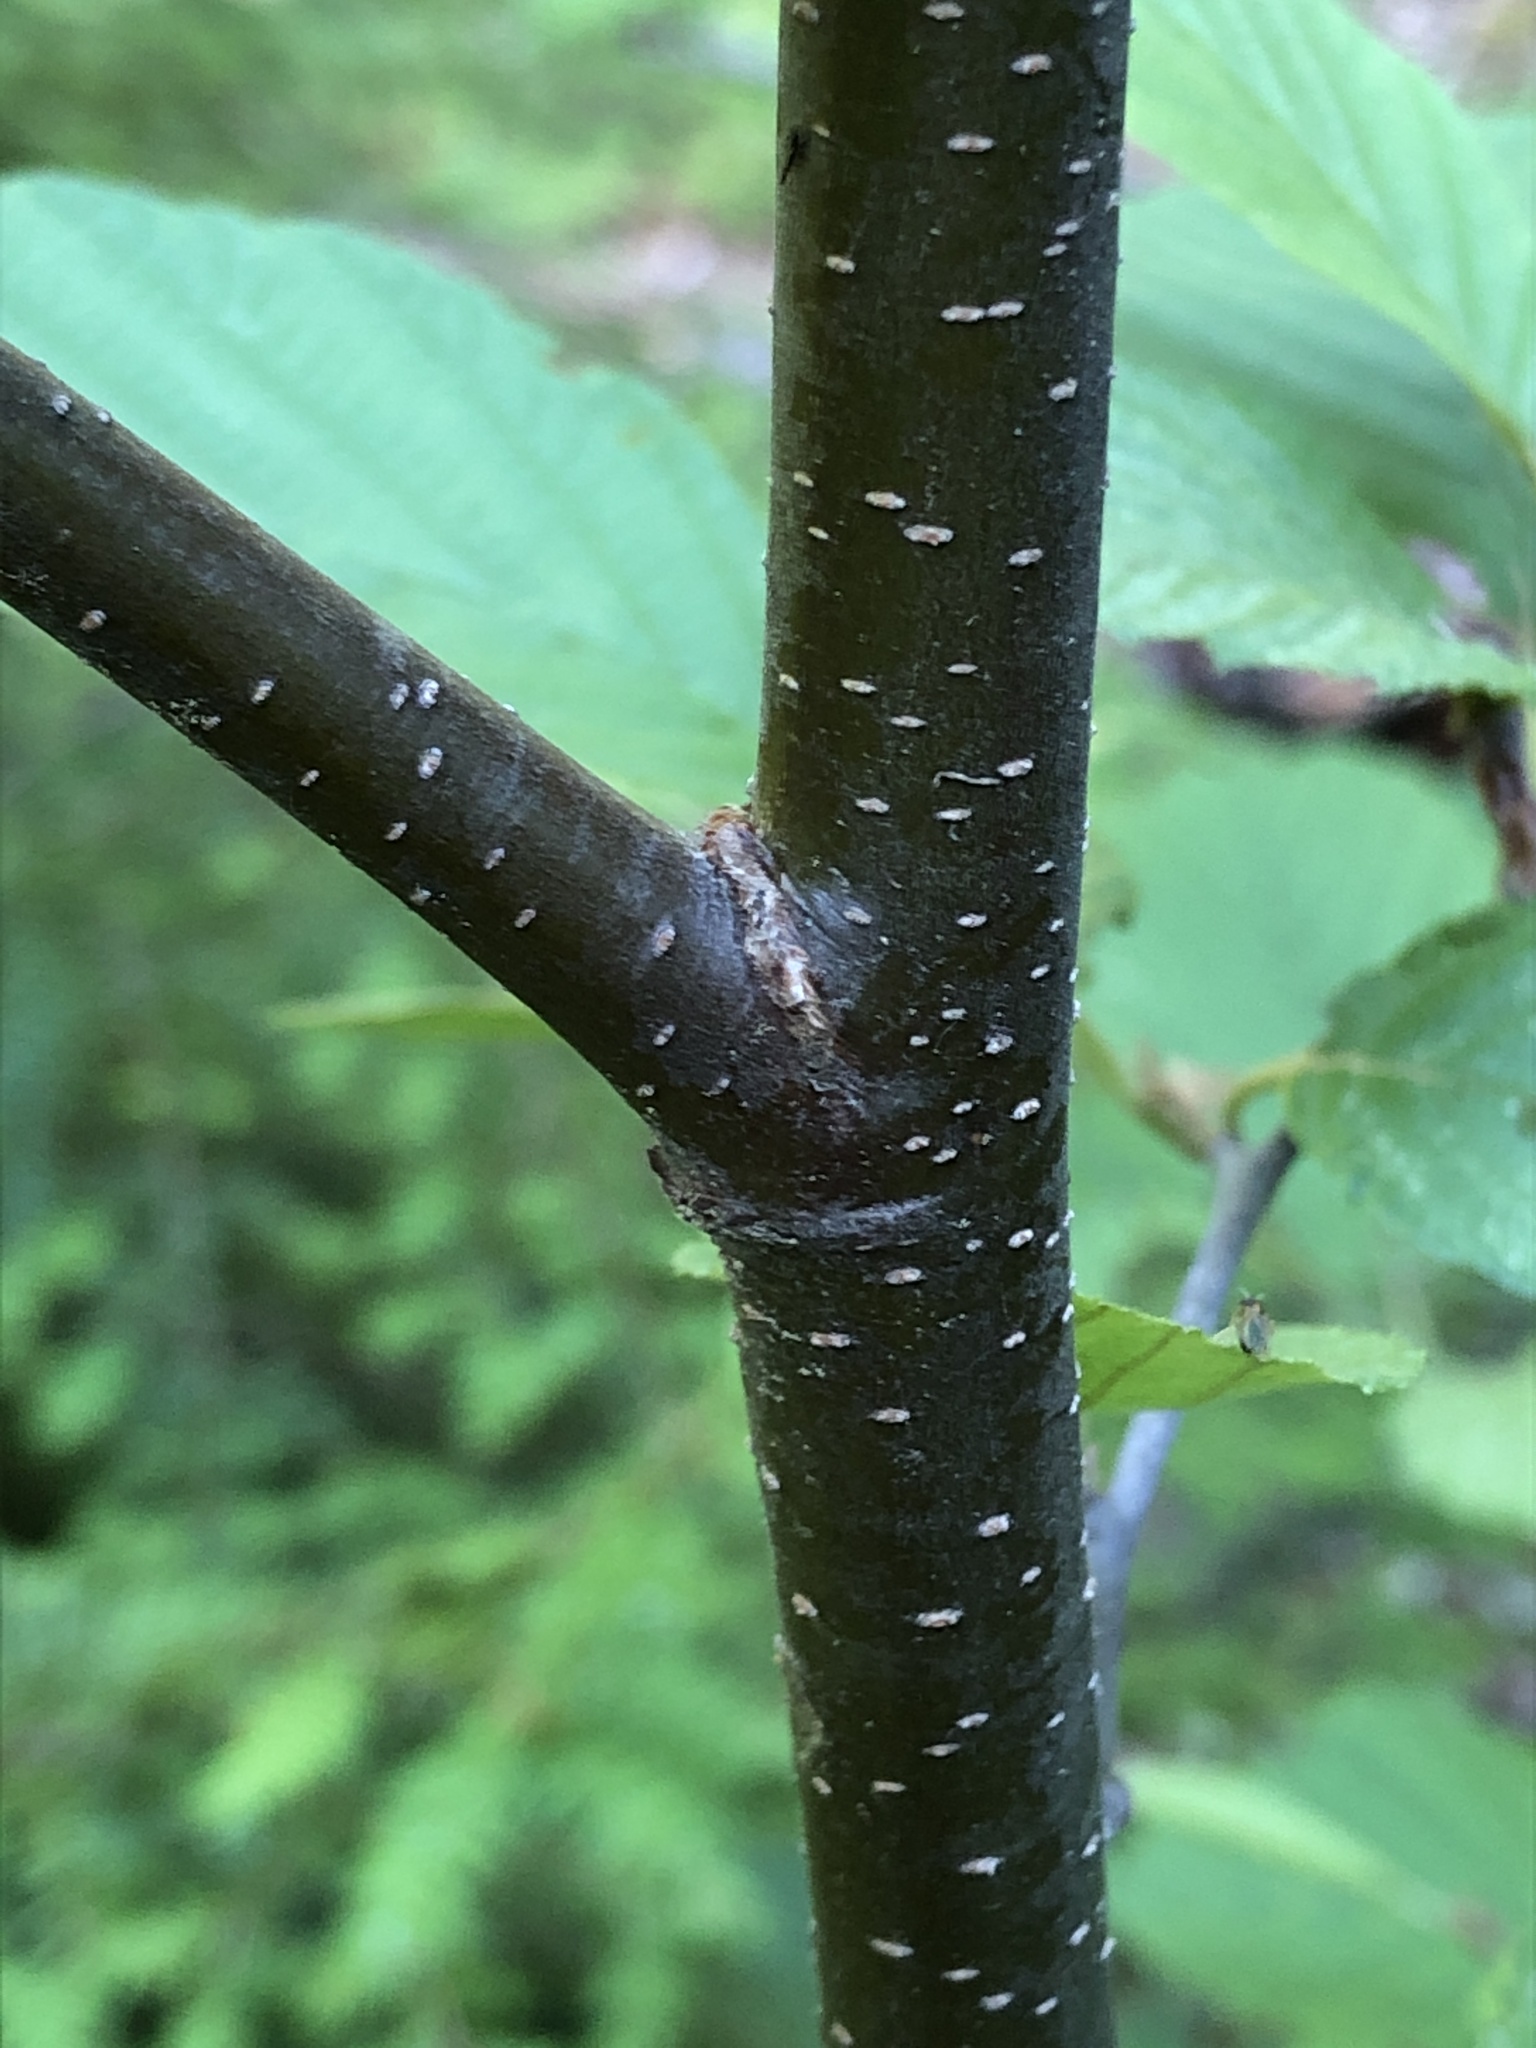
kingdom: Plantae
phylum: Tracheophyta
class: Magnoliopsida
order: Fagales
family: Betulaceae
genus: Alnus
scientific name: Alnus incana
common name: Grey alder
